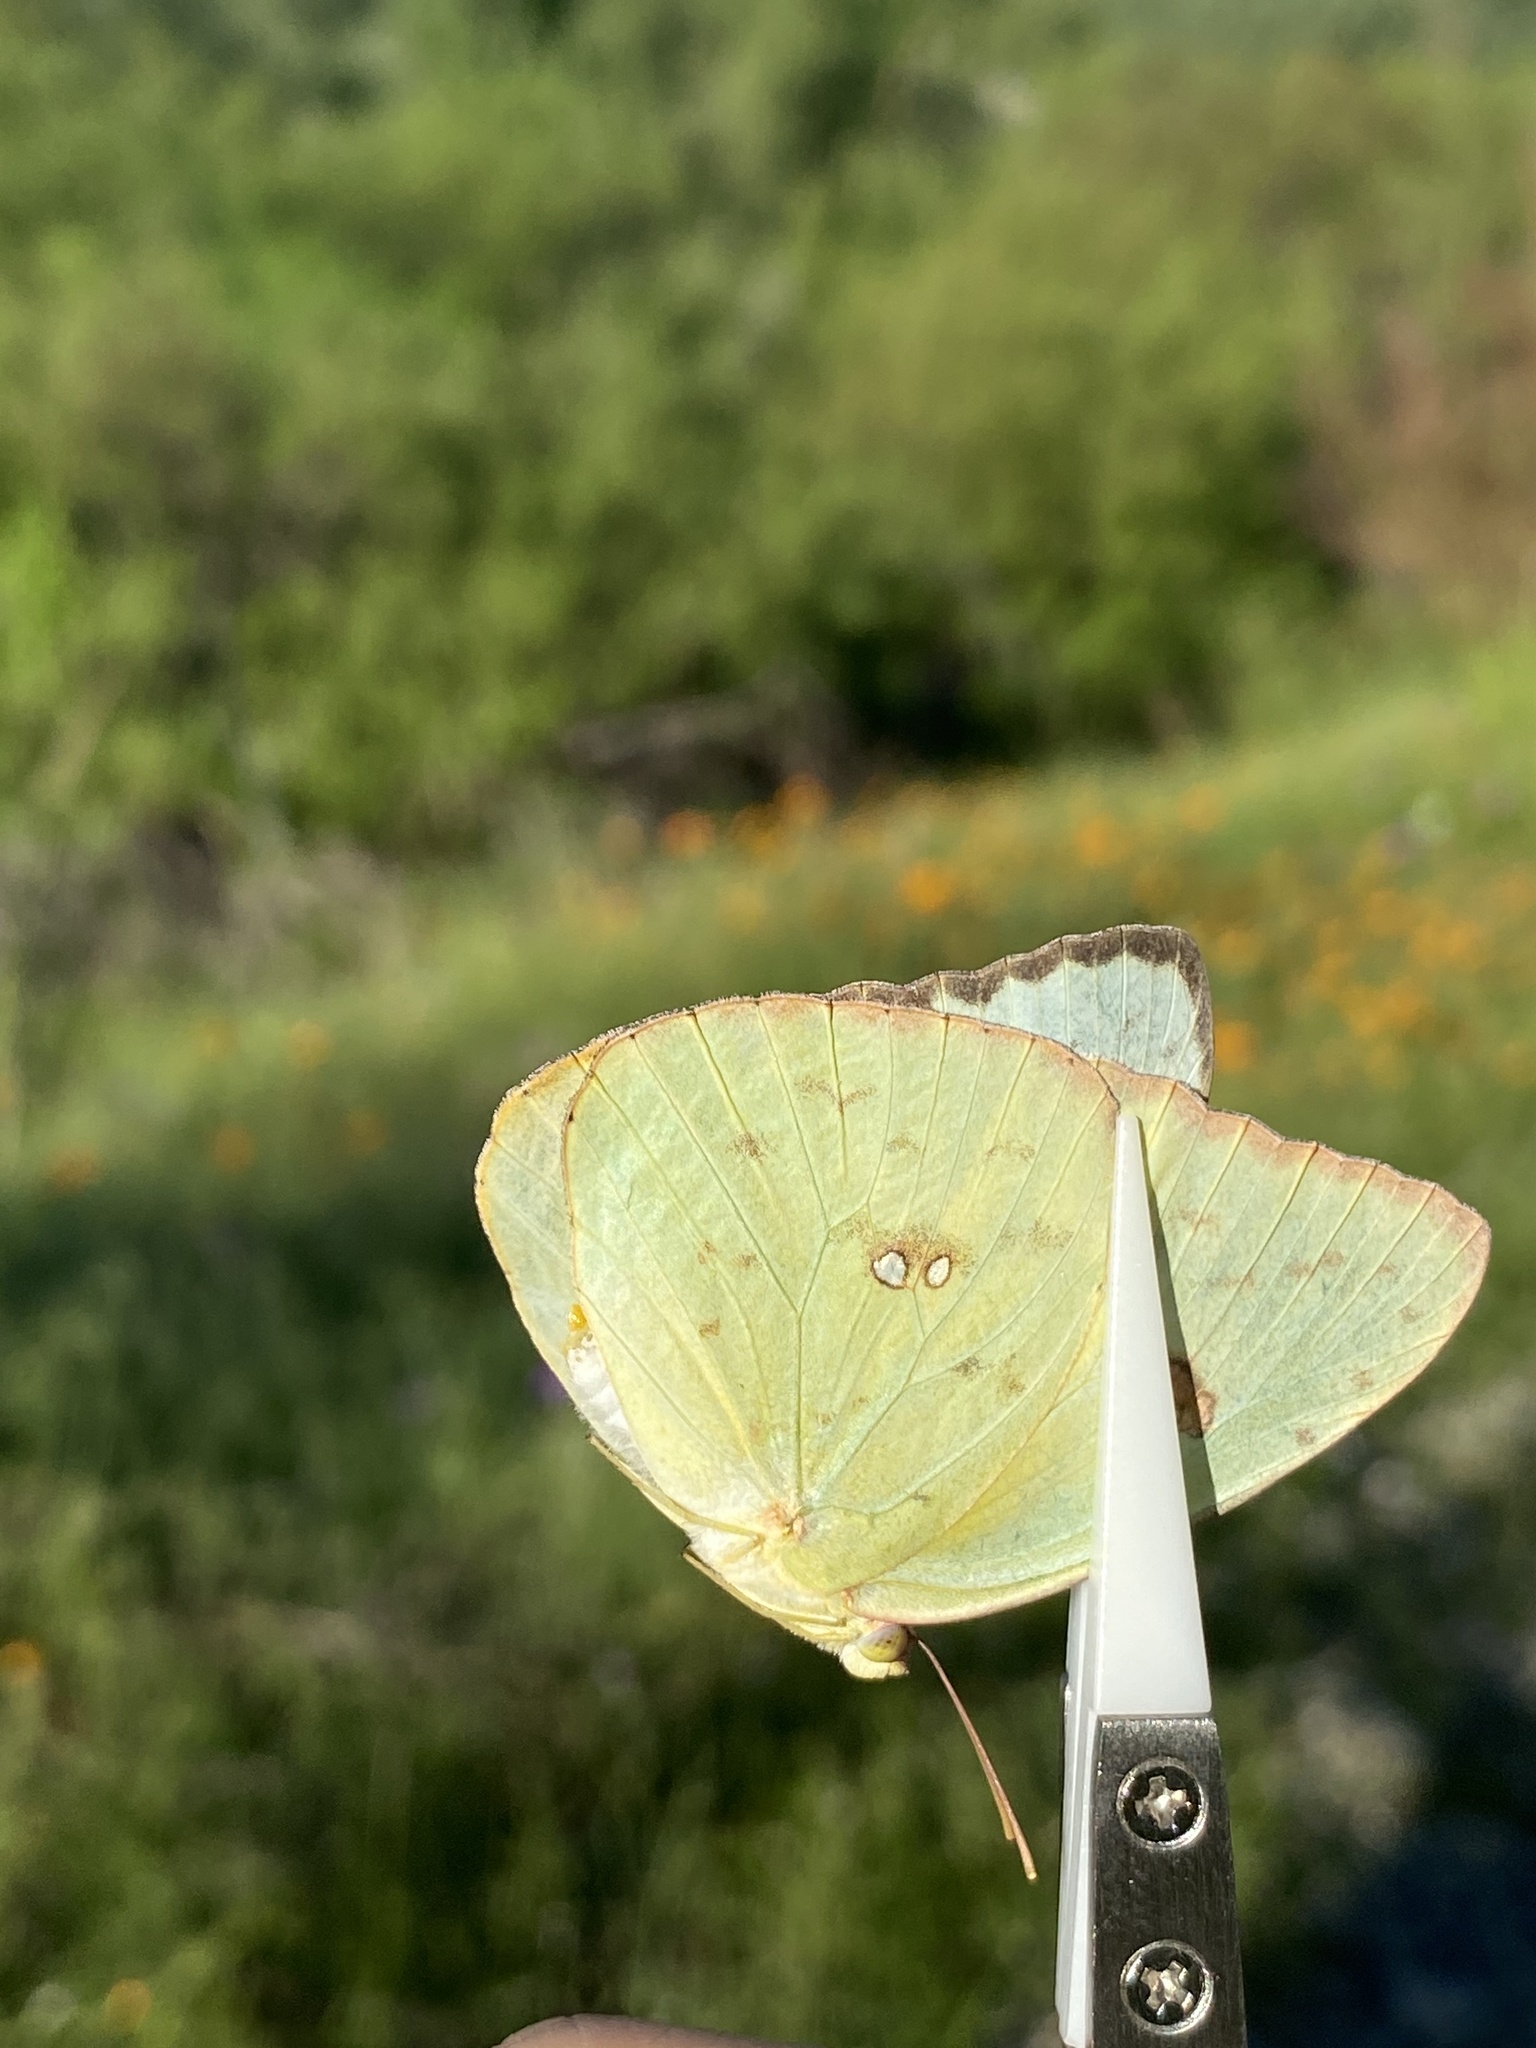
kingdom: Animalia
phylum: Arthropoda
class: Insecta
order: Lepidoptera
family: Pieridae
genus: Phoebis
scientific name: Phoebis marcellina
